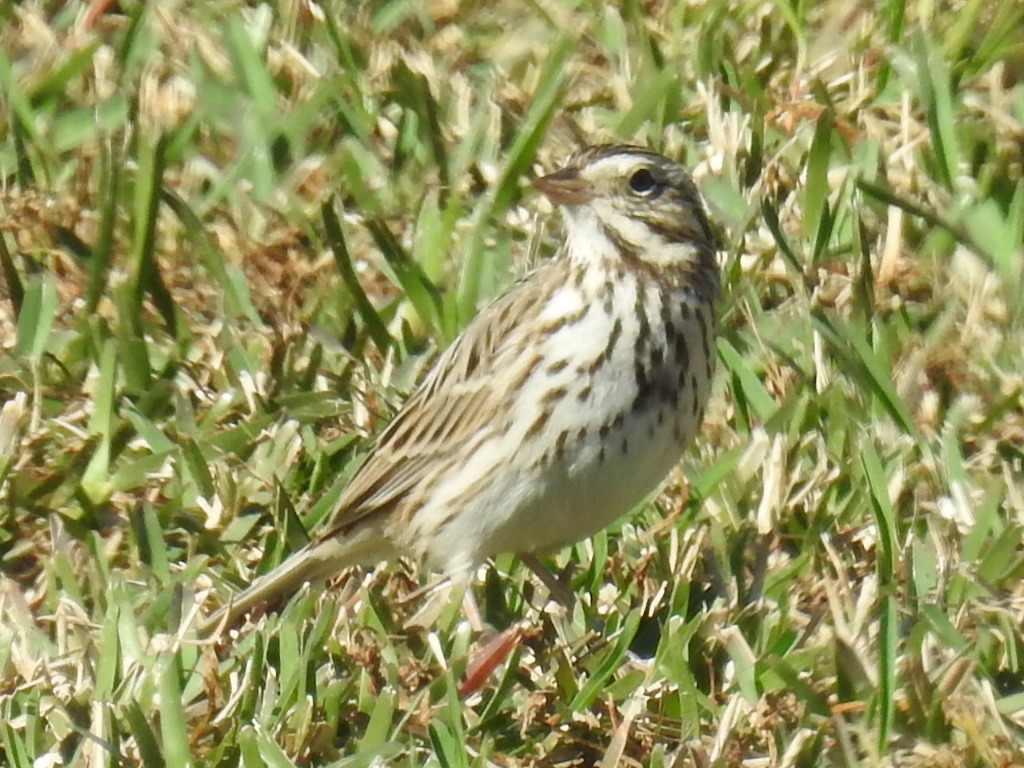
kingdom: Animalia
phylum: Chordata
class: Aves
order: Passeriformes
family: Passerellidae
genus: Passerculus
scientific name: Passerculus sandwichensis
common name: Savannah sparrow
